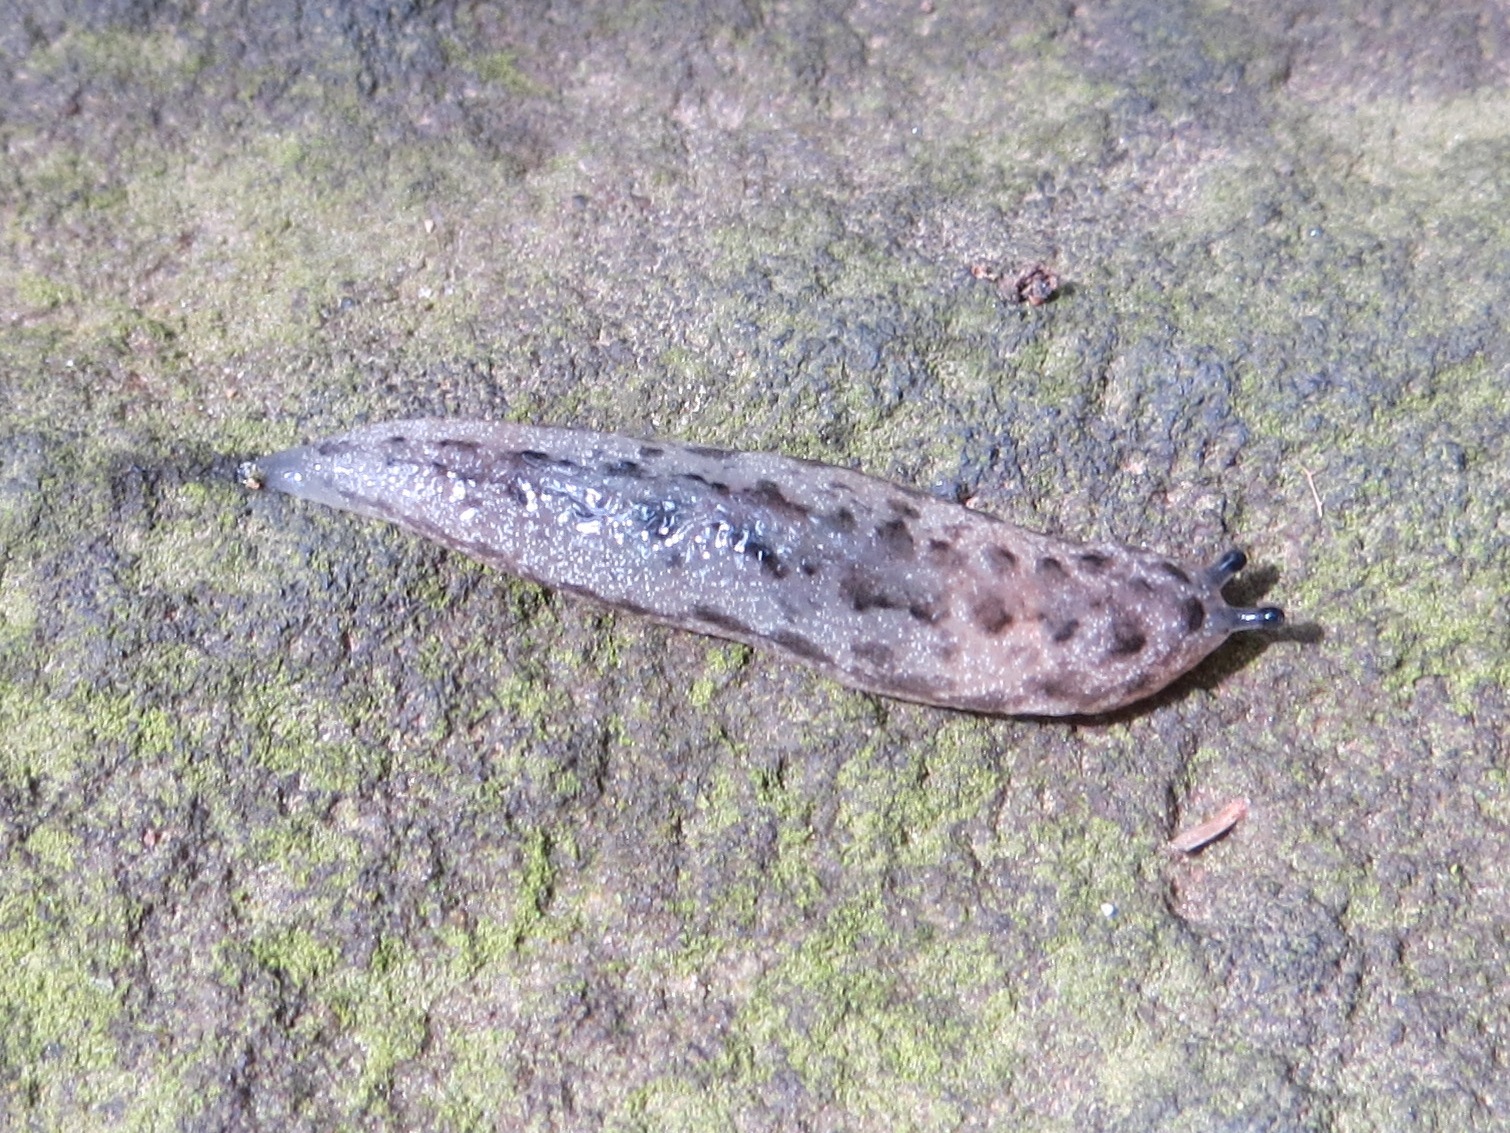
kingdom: Animalia
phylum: Mollusca
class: Gastropoda
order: Stylommatophora
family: Philomycidae
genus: Megapallifera
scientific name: Megapallifera mutabilis
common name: Changeable mantleslug
